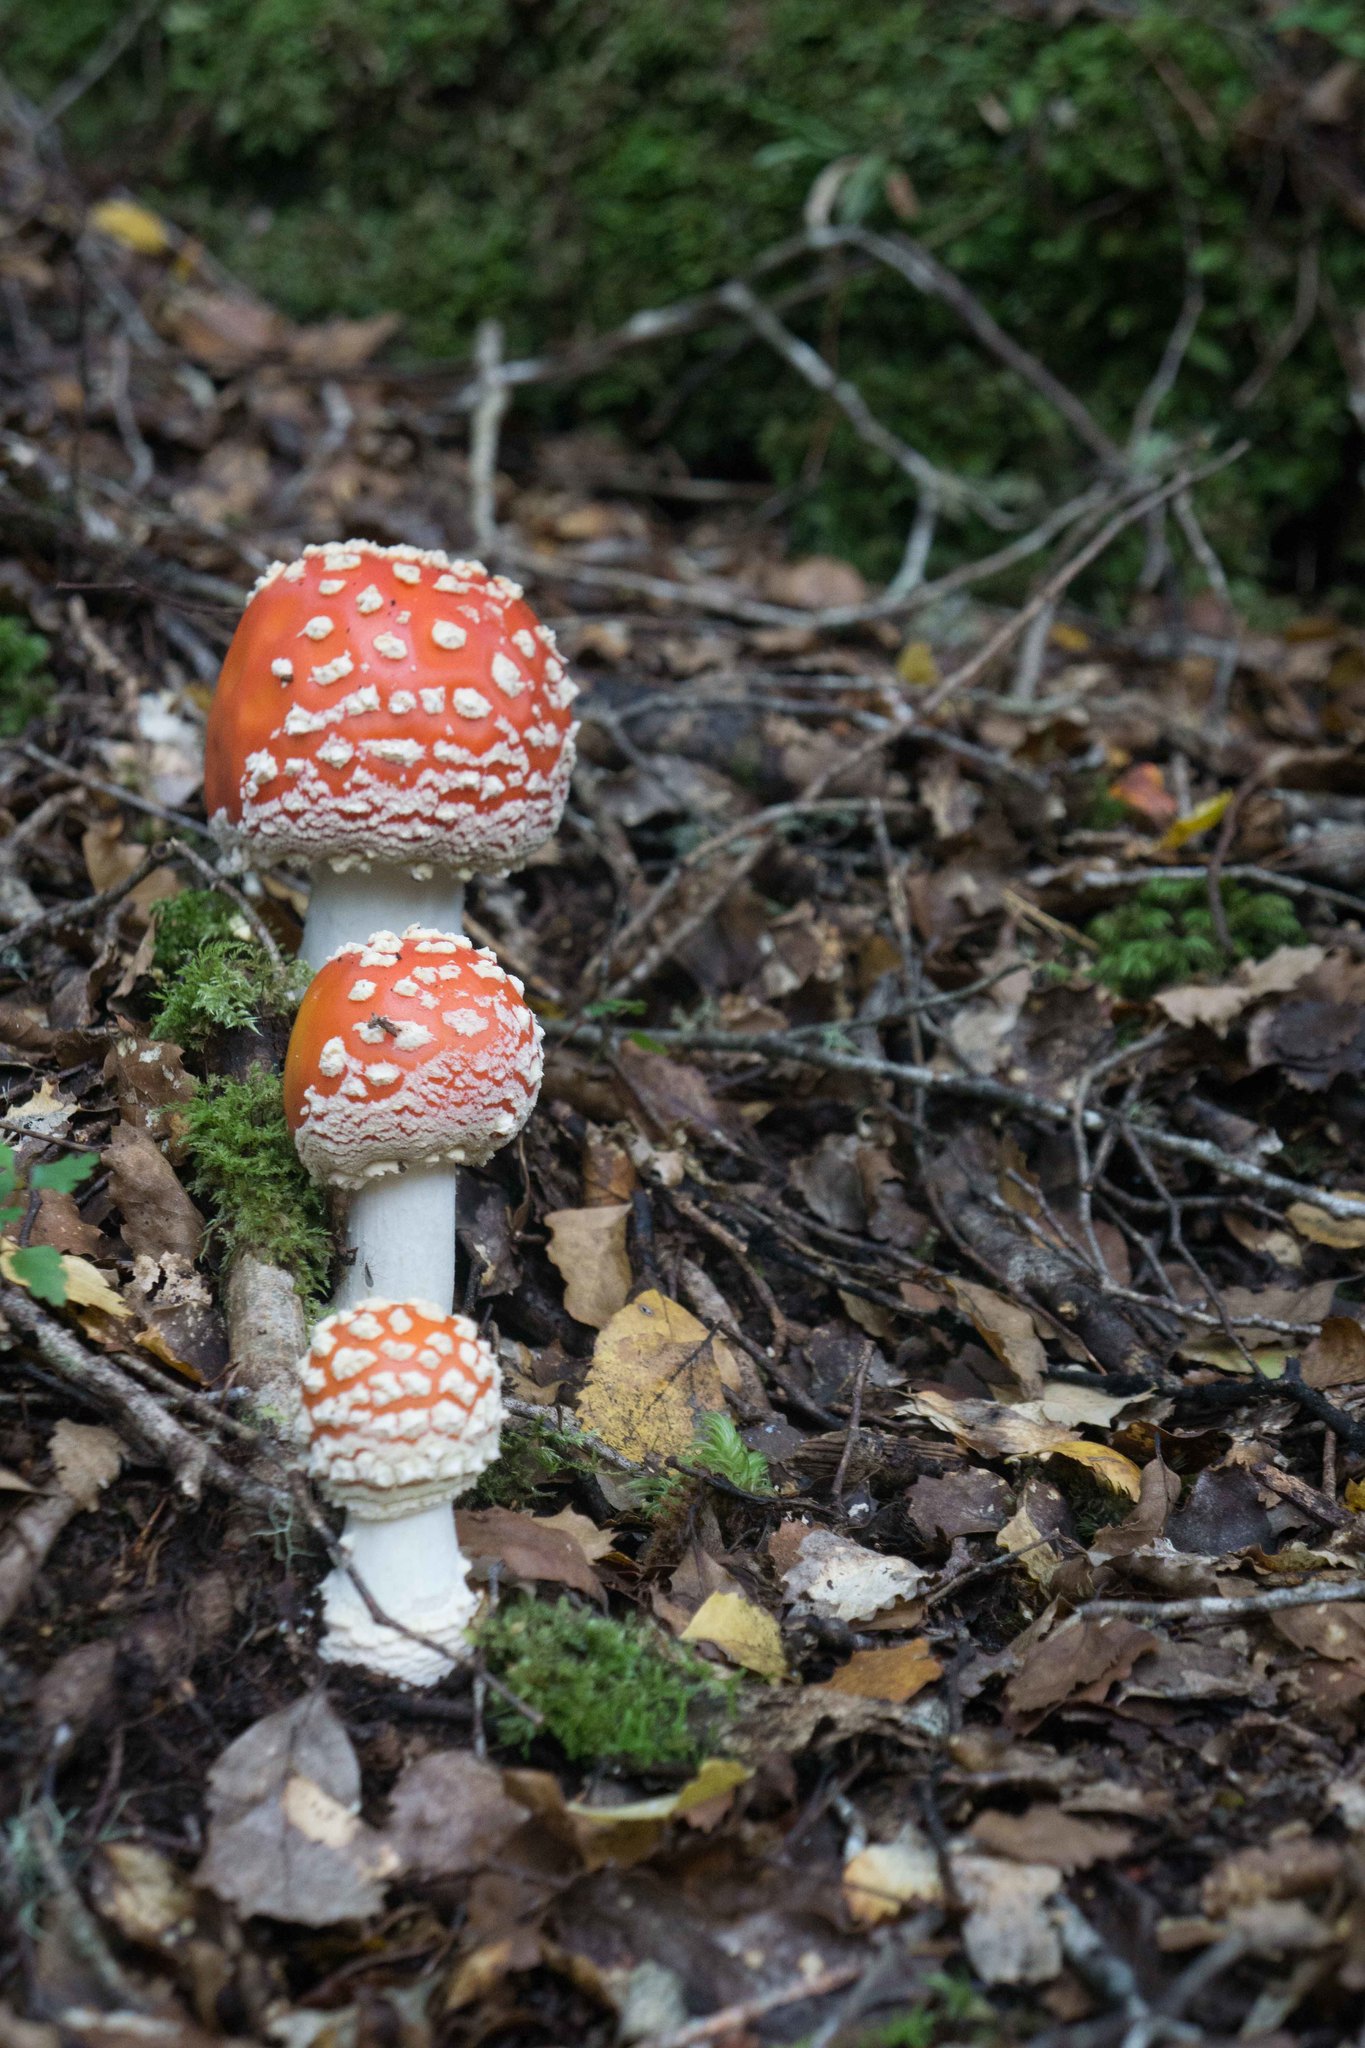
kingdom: Fungi
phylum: Basidiomycota
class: Agaricomycetes
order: Agaricales
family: Amanitaceae
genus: Amanita
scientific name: Amanita muscaria
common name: Fly agaric
